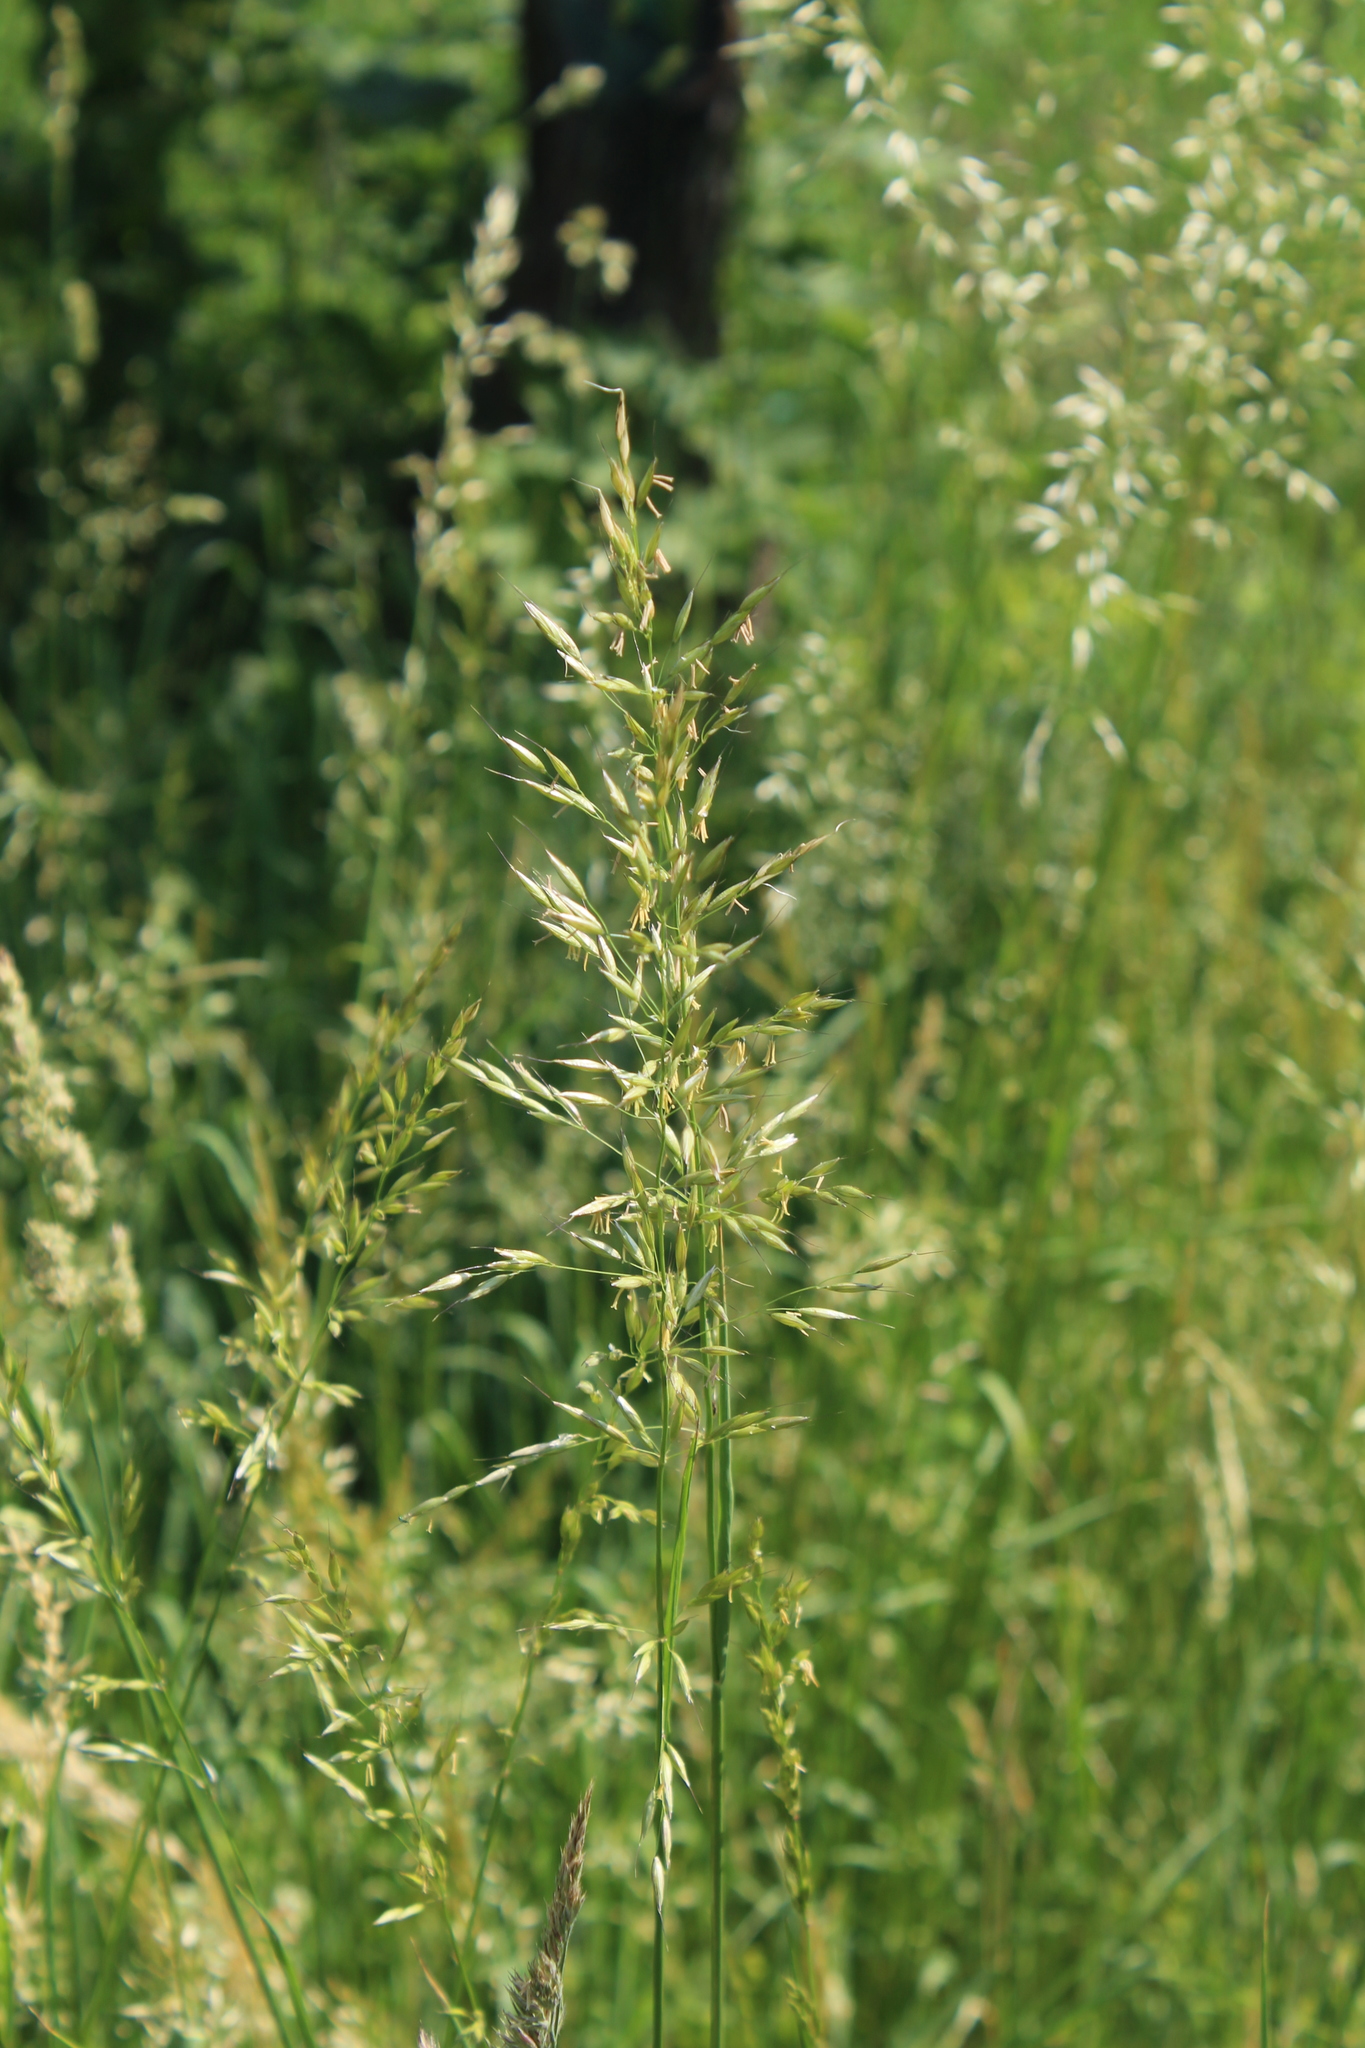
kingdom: Plantae
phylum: Tracheophyta
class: Liliopsida
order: Poales
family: Poaceae
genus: Arrhenatherum
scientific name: Arrhenatherum elatius
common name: Tall oatgrass
